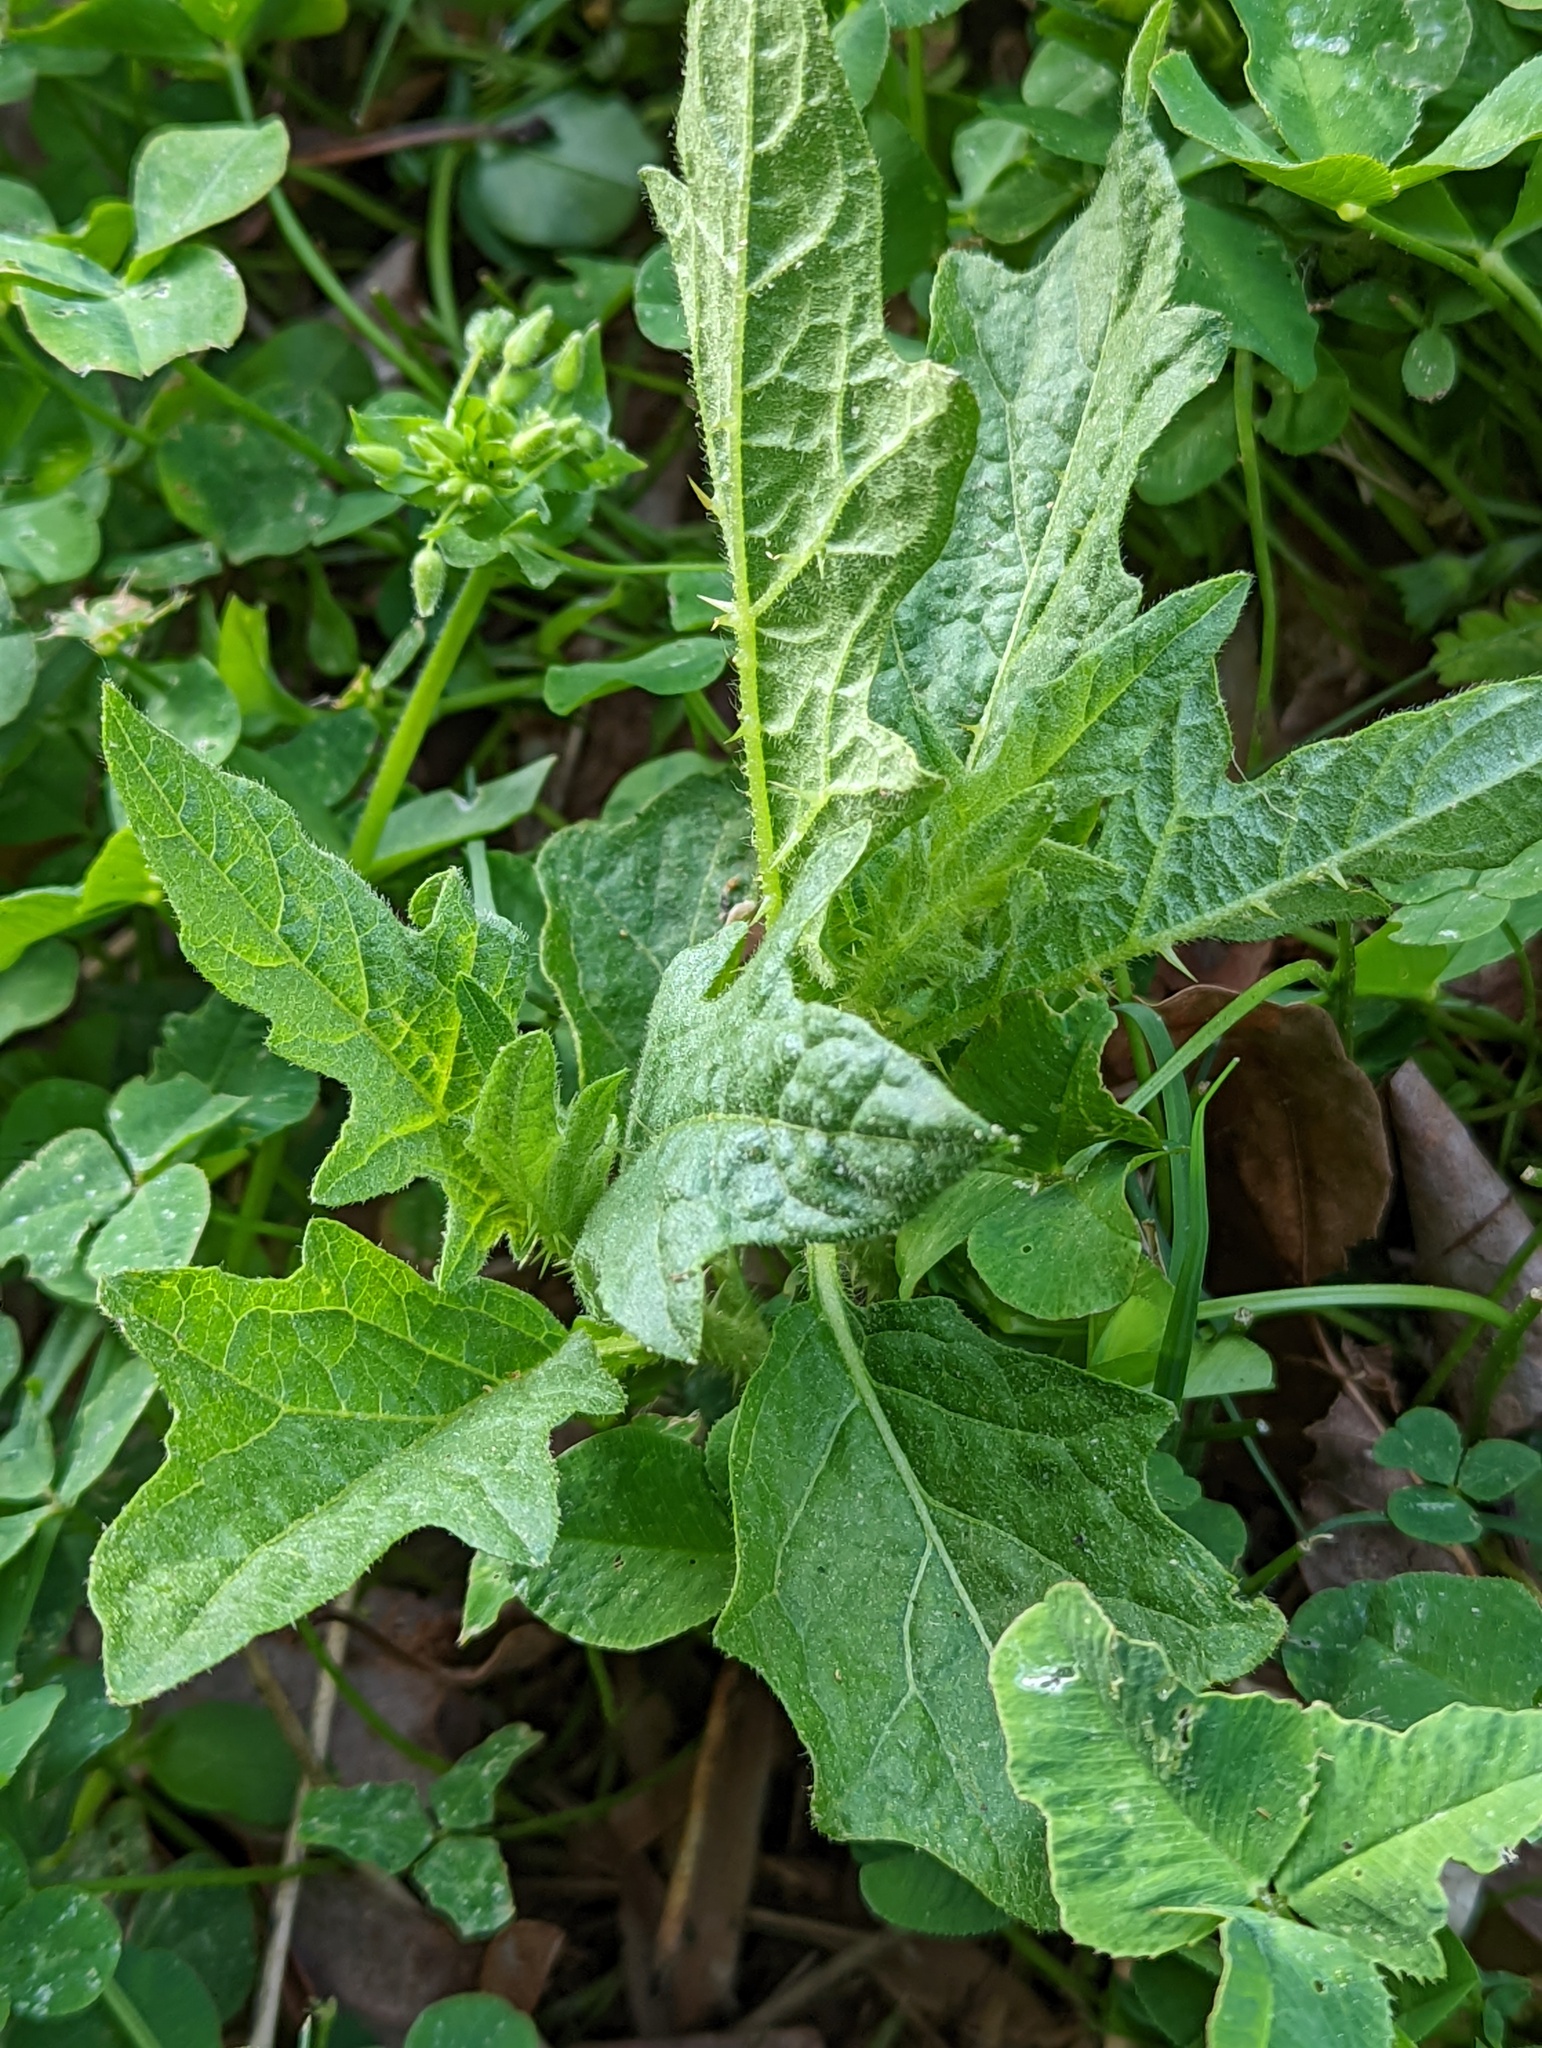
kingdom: Plantae
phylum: Tracheophyta
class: Magnoliopsida
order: Solanales
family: Solanaceae
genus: Solanum
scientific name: Solanum carolinense
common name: Horse-nettle
